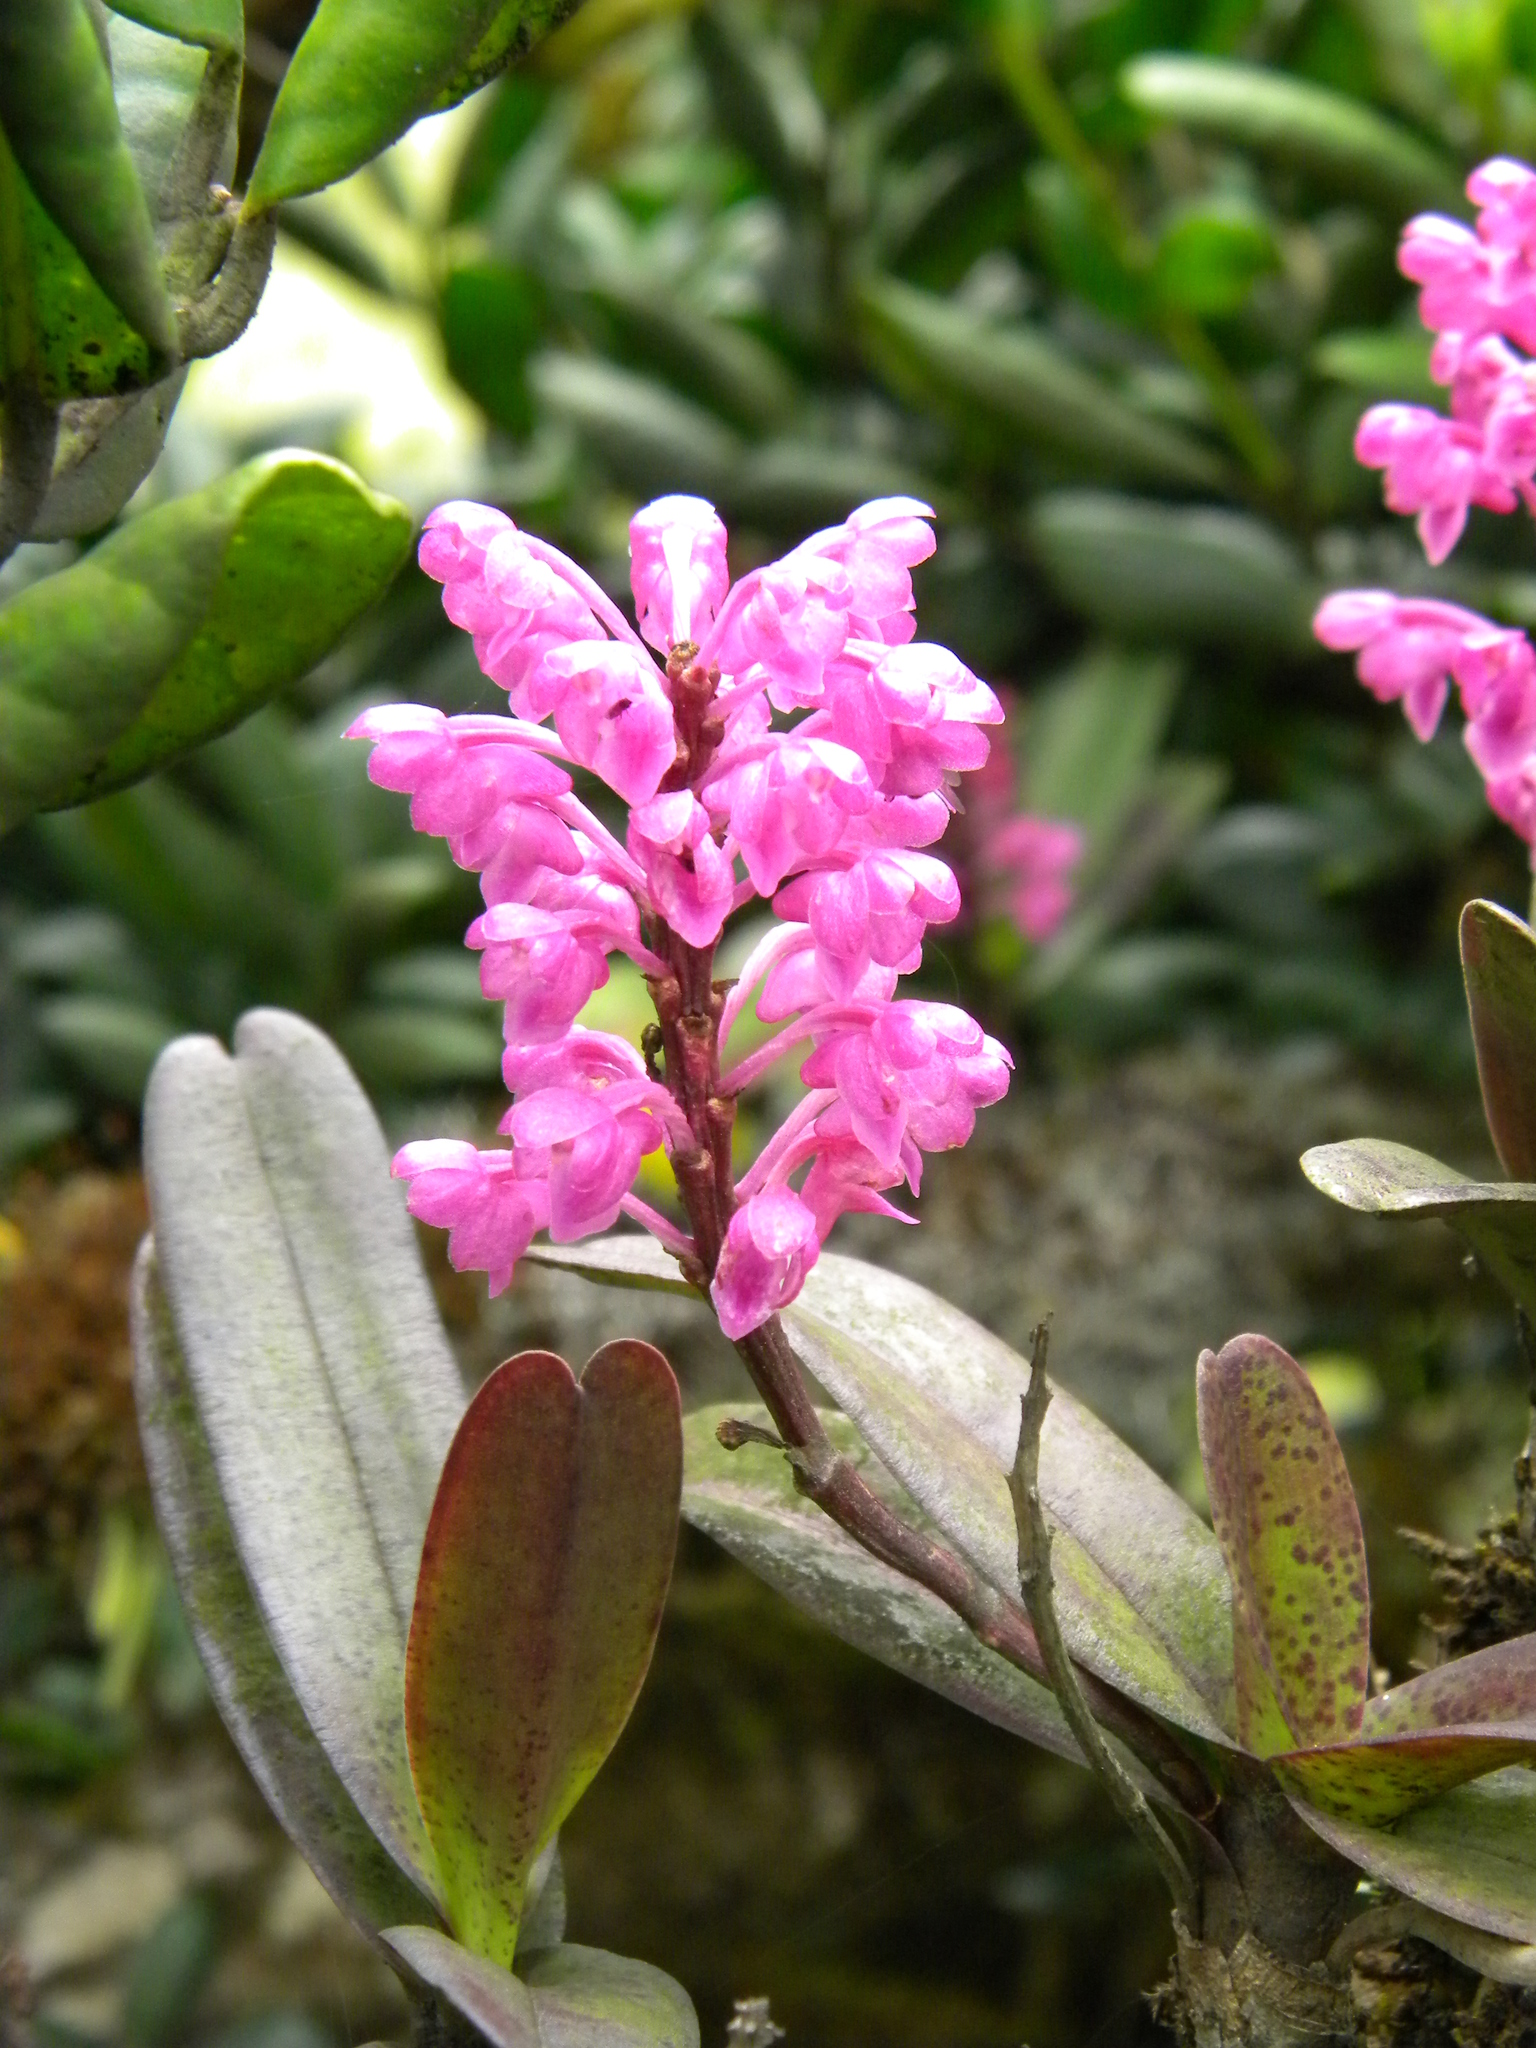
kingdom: Plantae
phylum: Tracheophyta
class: Liliopsida
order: Asparagales
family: Orchidaceae
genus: Aerides
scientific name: Aerides ringens
